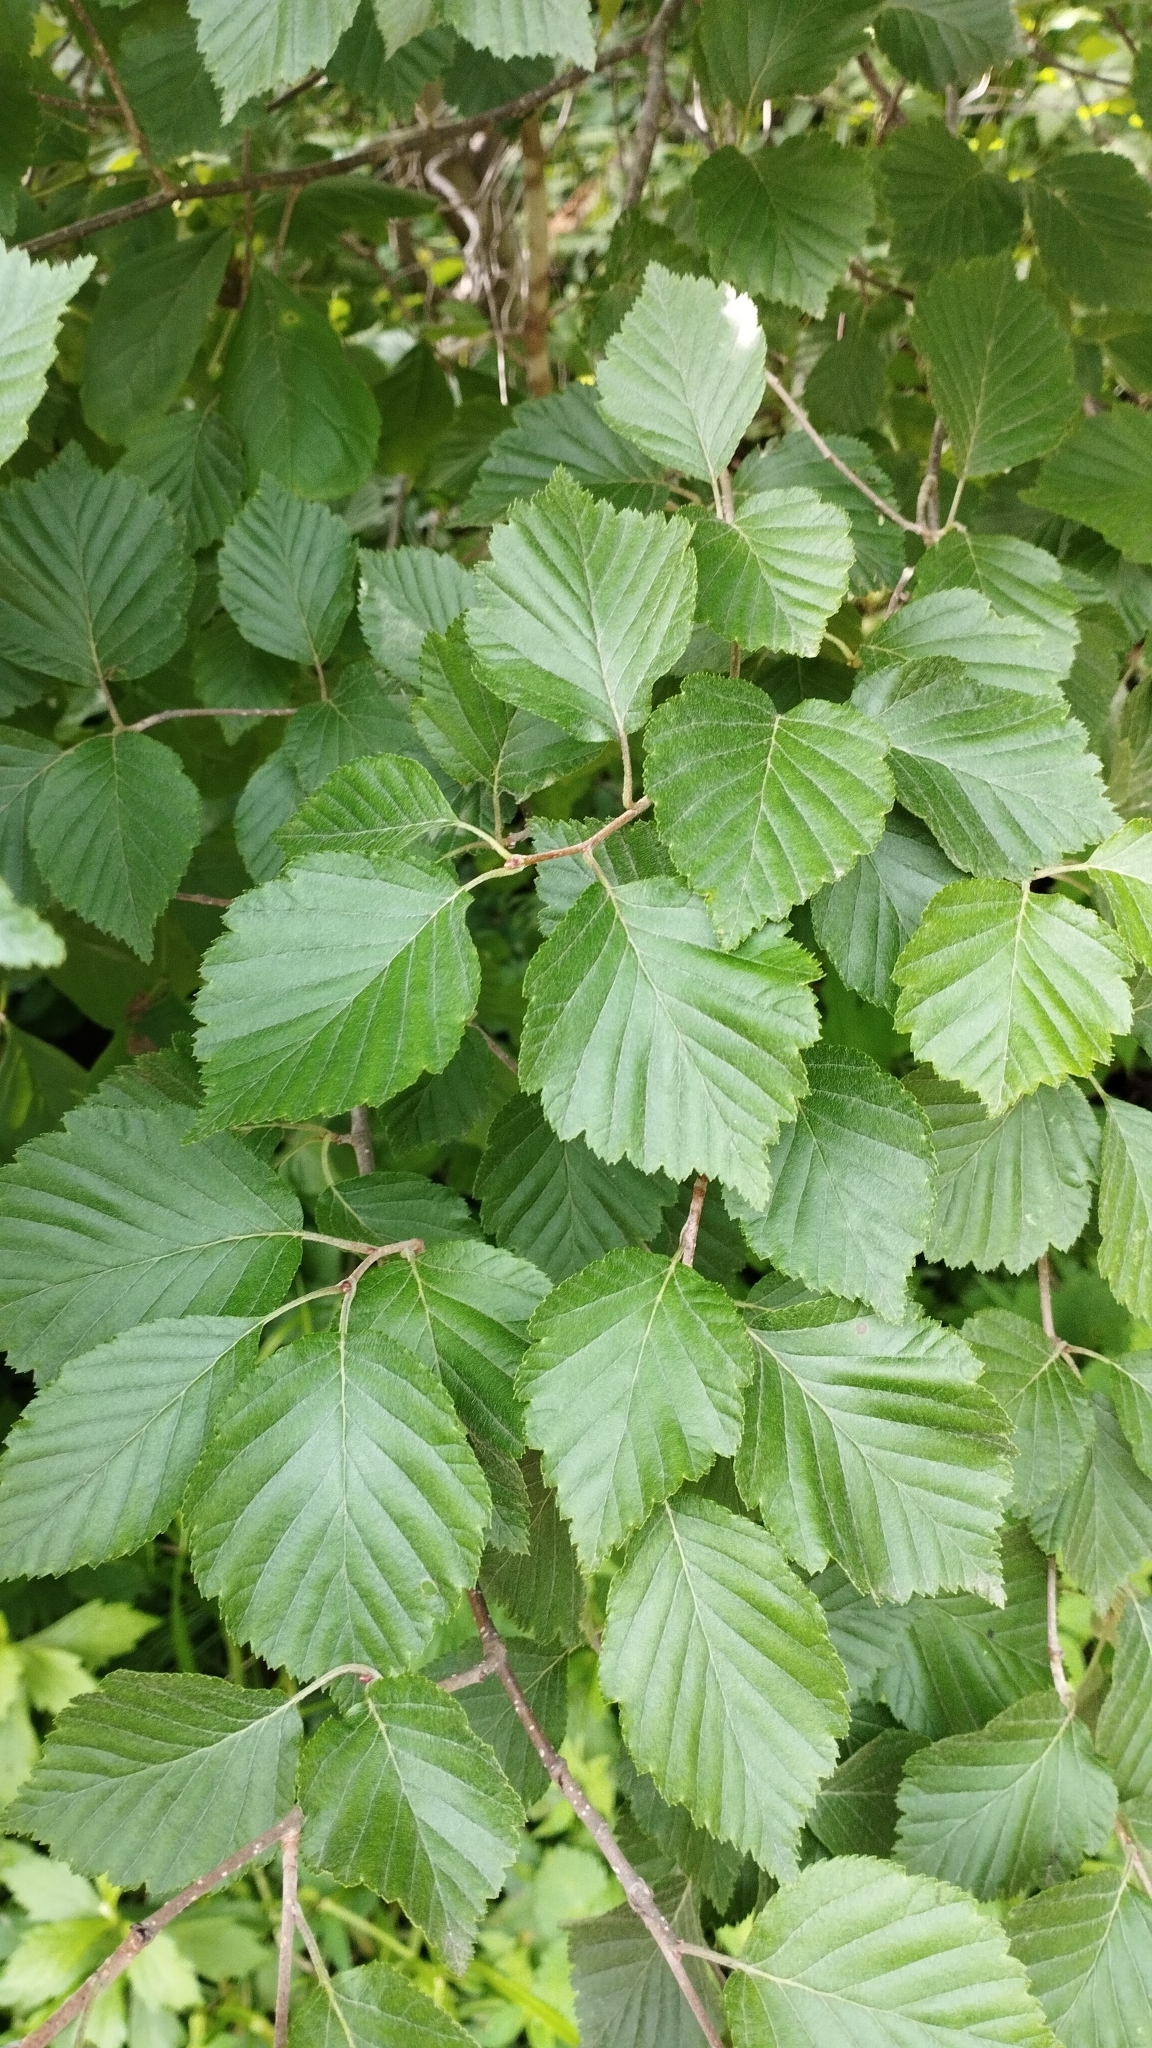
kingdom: Plantae
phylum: Tracheophyta
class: Magnoliopsida
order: Rosales
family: Rosaceae
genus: Sorbus
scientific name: Sorbus alnifolia
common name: Mountain-ash
